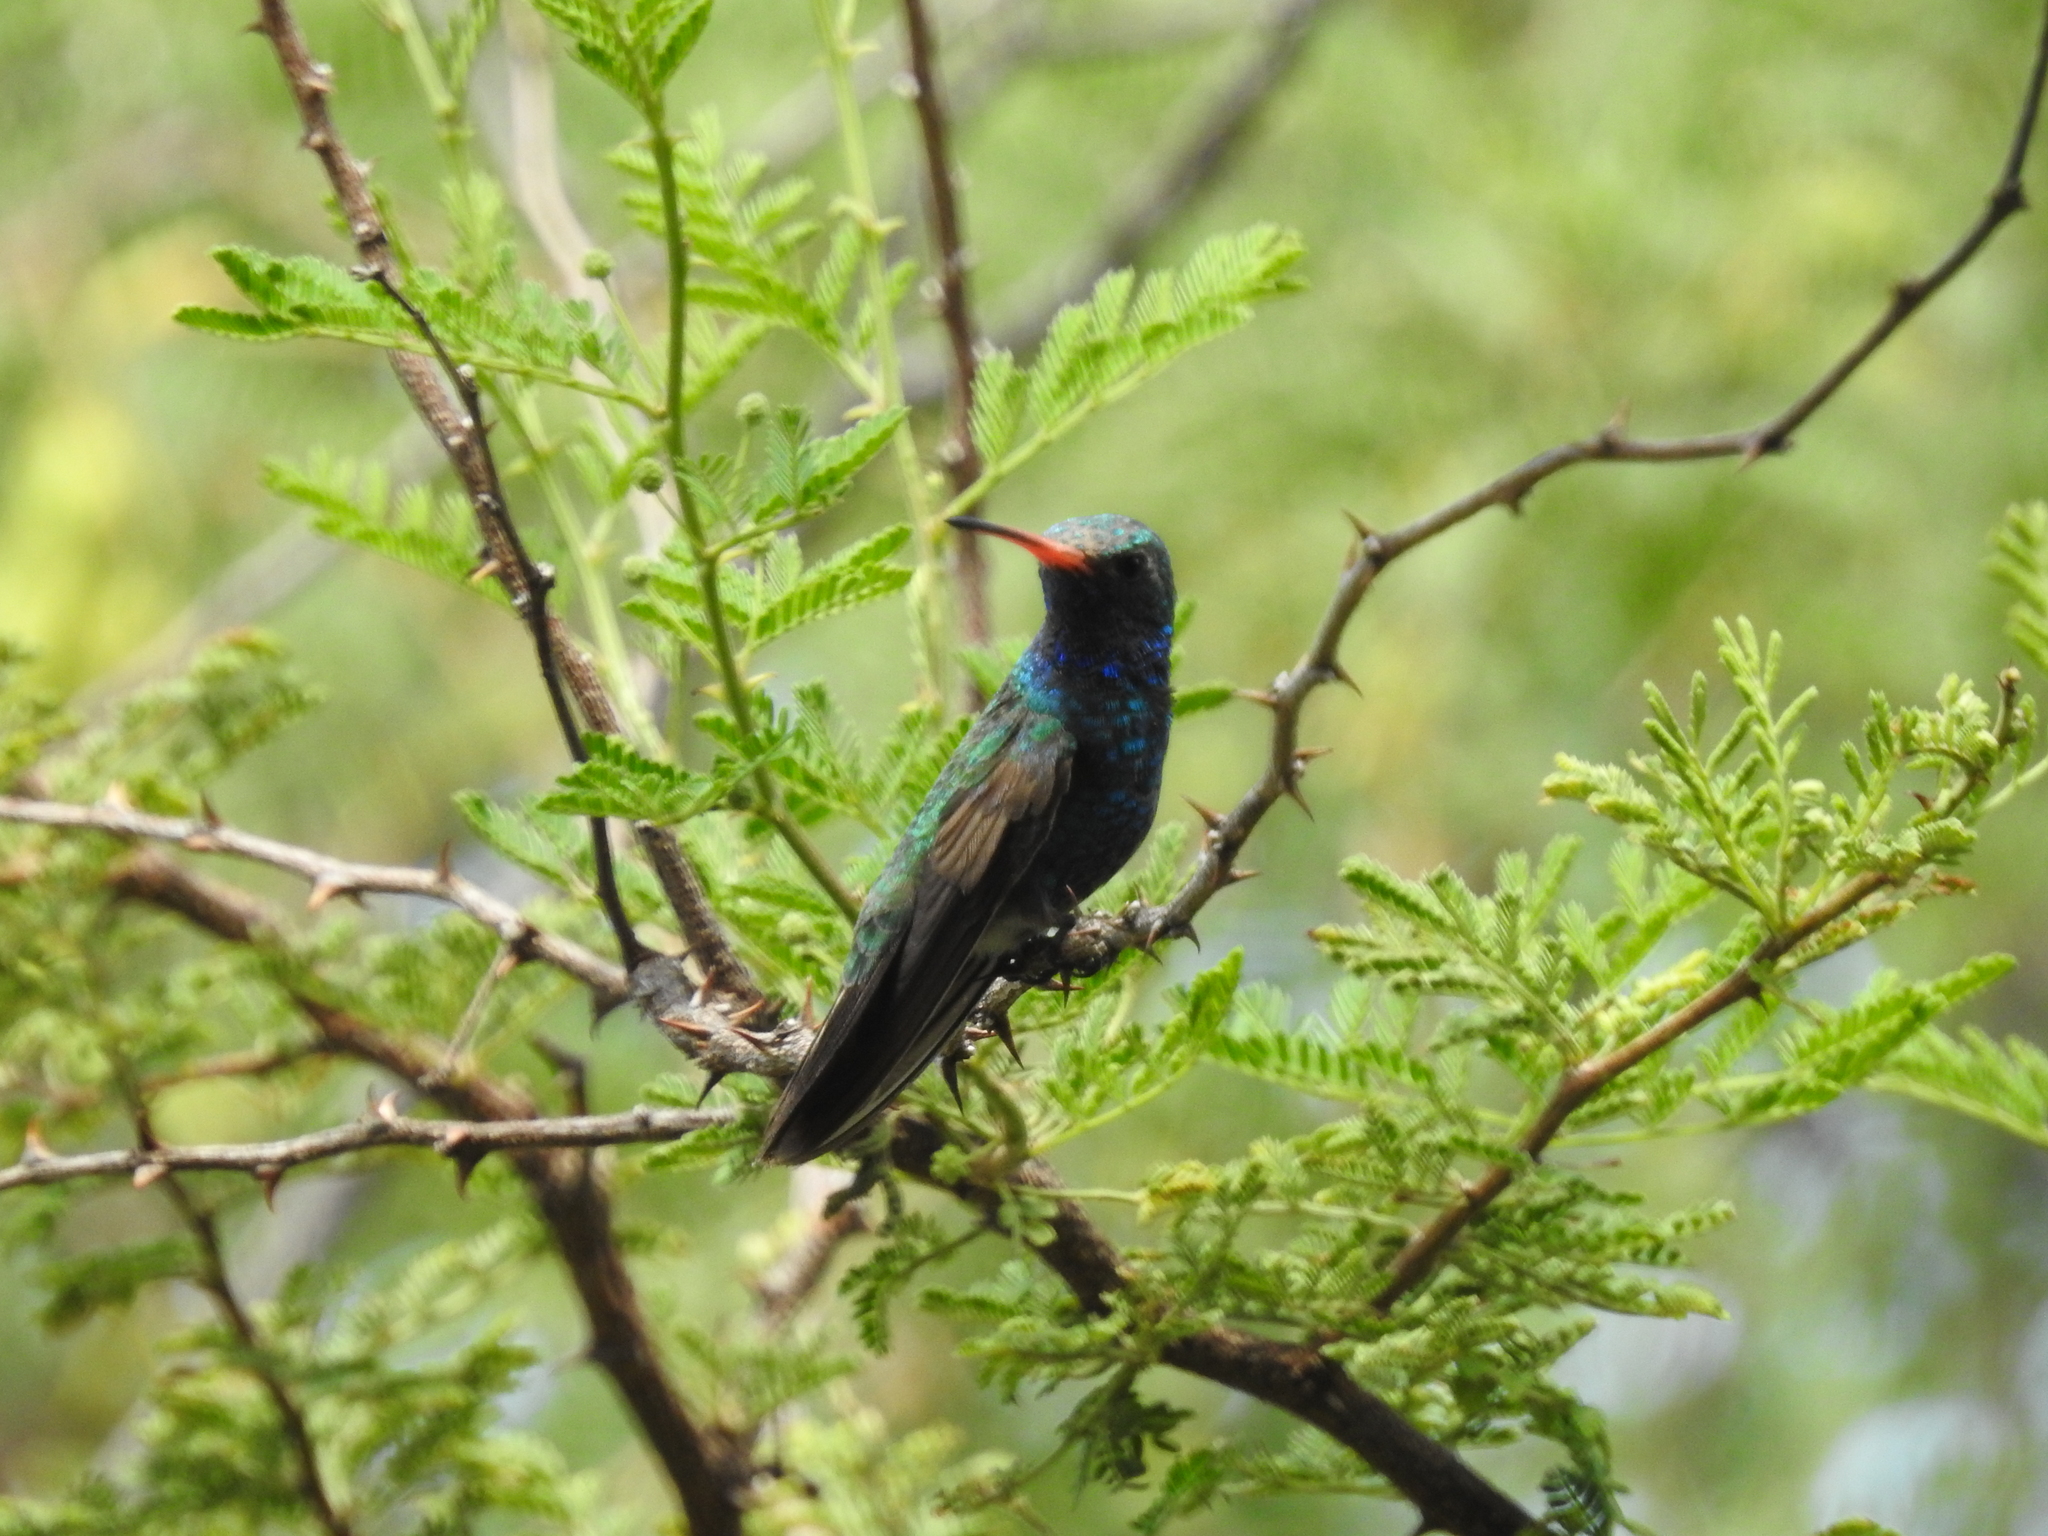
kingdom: Animalia
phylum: Chordata
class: Aves
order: Apodiformes
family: Trochilidae
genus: Cynanthus
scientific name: Cynanthus latirostris
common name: Broad-billed hummingbird
